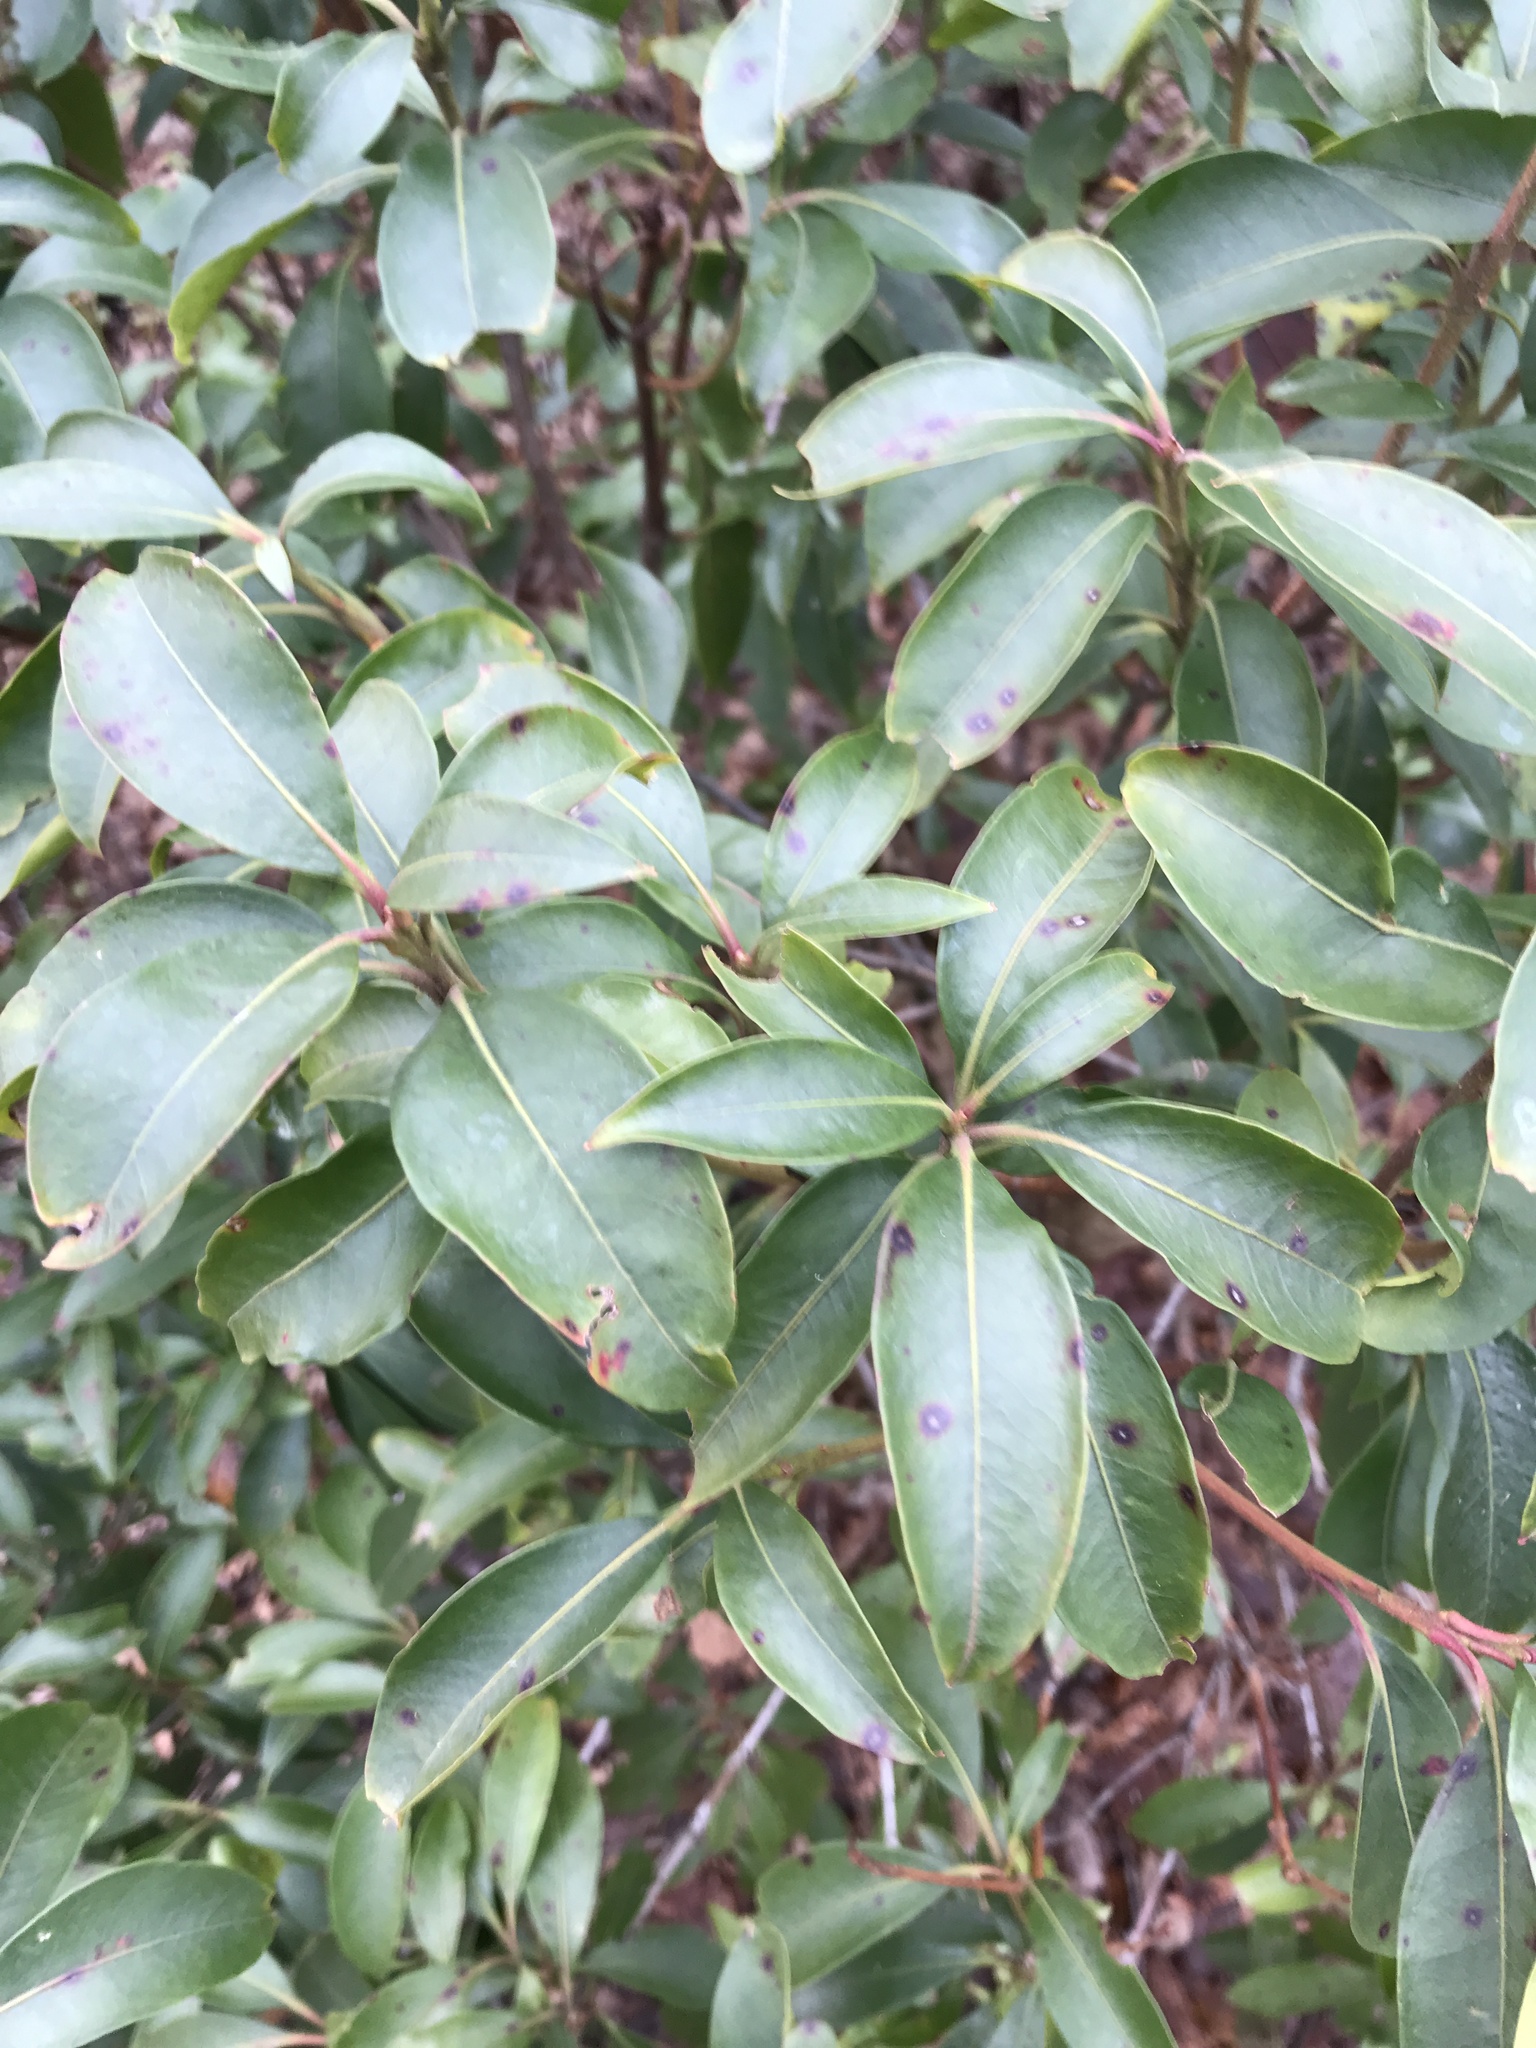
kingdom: Plantae
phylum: Tracheophyta
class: Magnoliopsida
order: Ericales
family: Ericaceae
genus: Kalmia
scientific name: Kalmia latifolia
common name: Mountain-laurel
